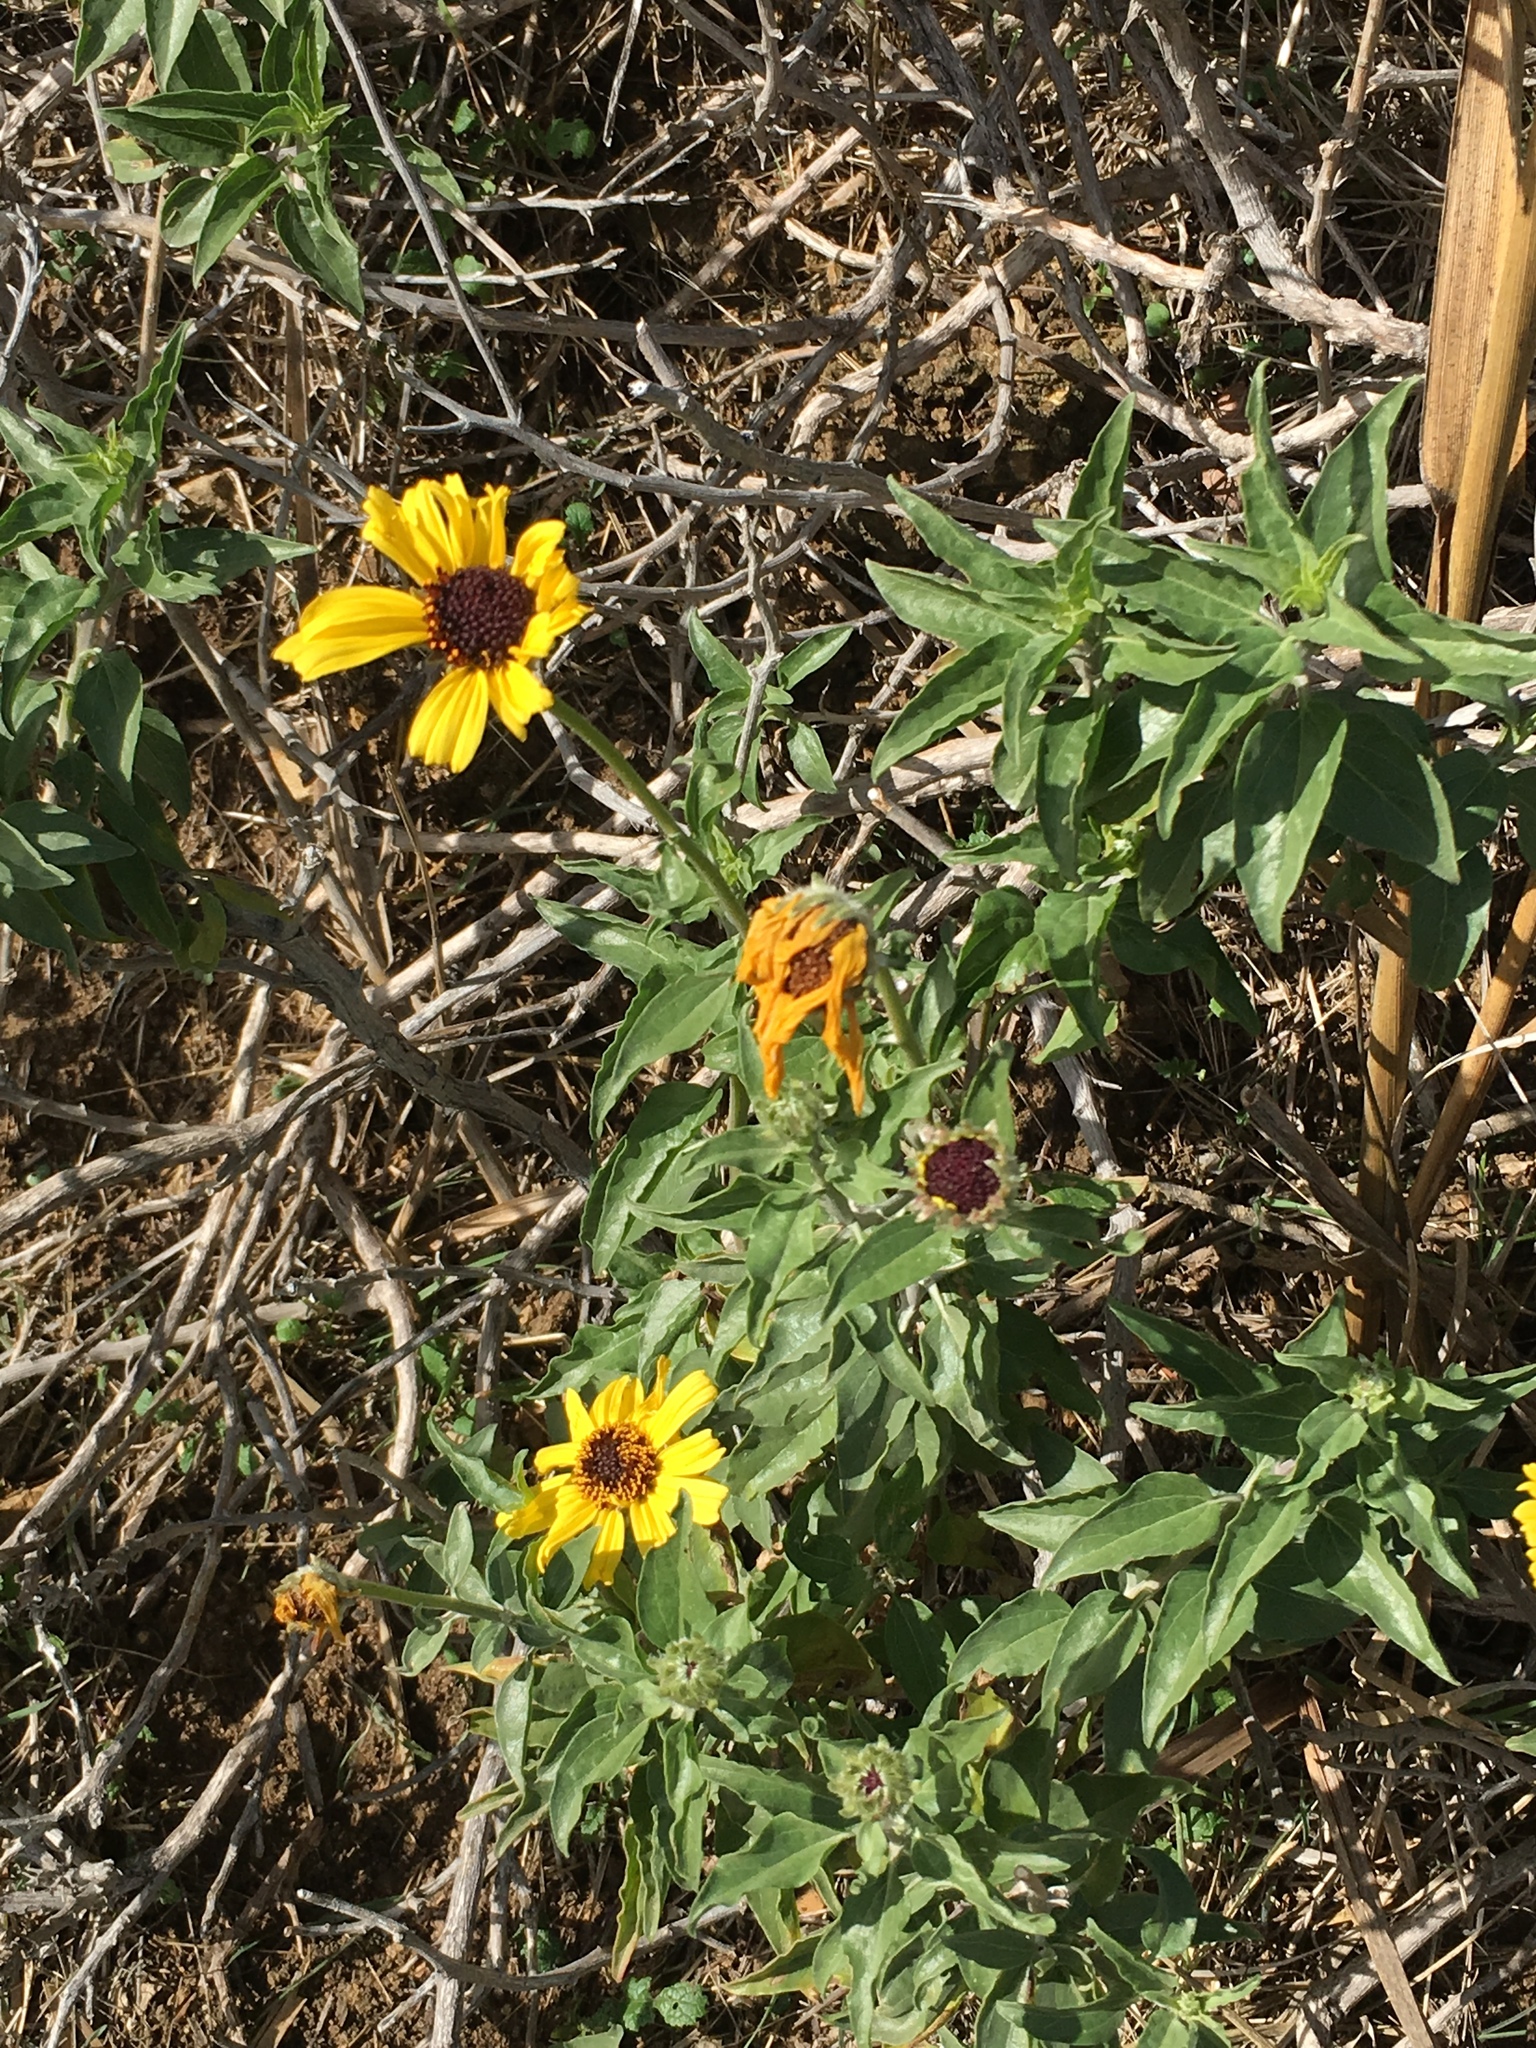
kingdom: Plantae
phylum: Tracheophyta
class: Magnoliopsida
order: Asterales
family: Asteraceae
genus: Encelia
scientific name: Encelia californica
